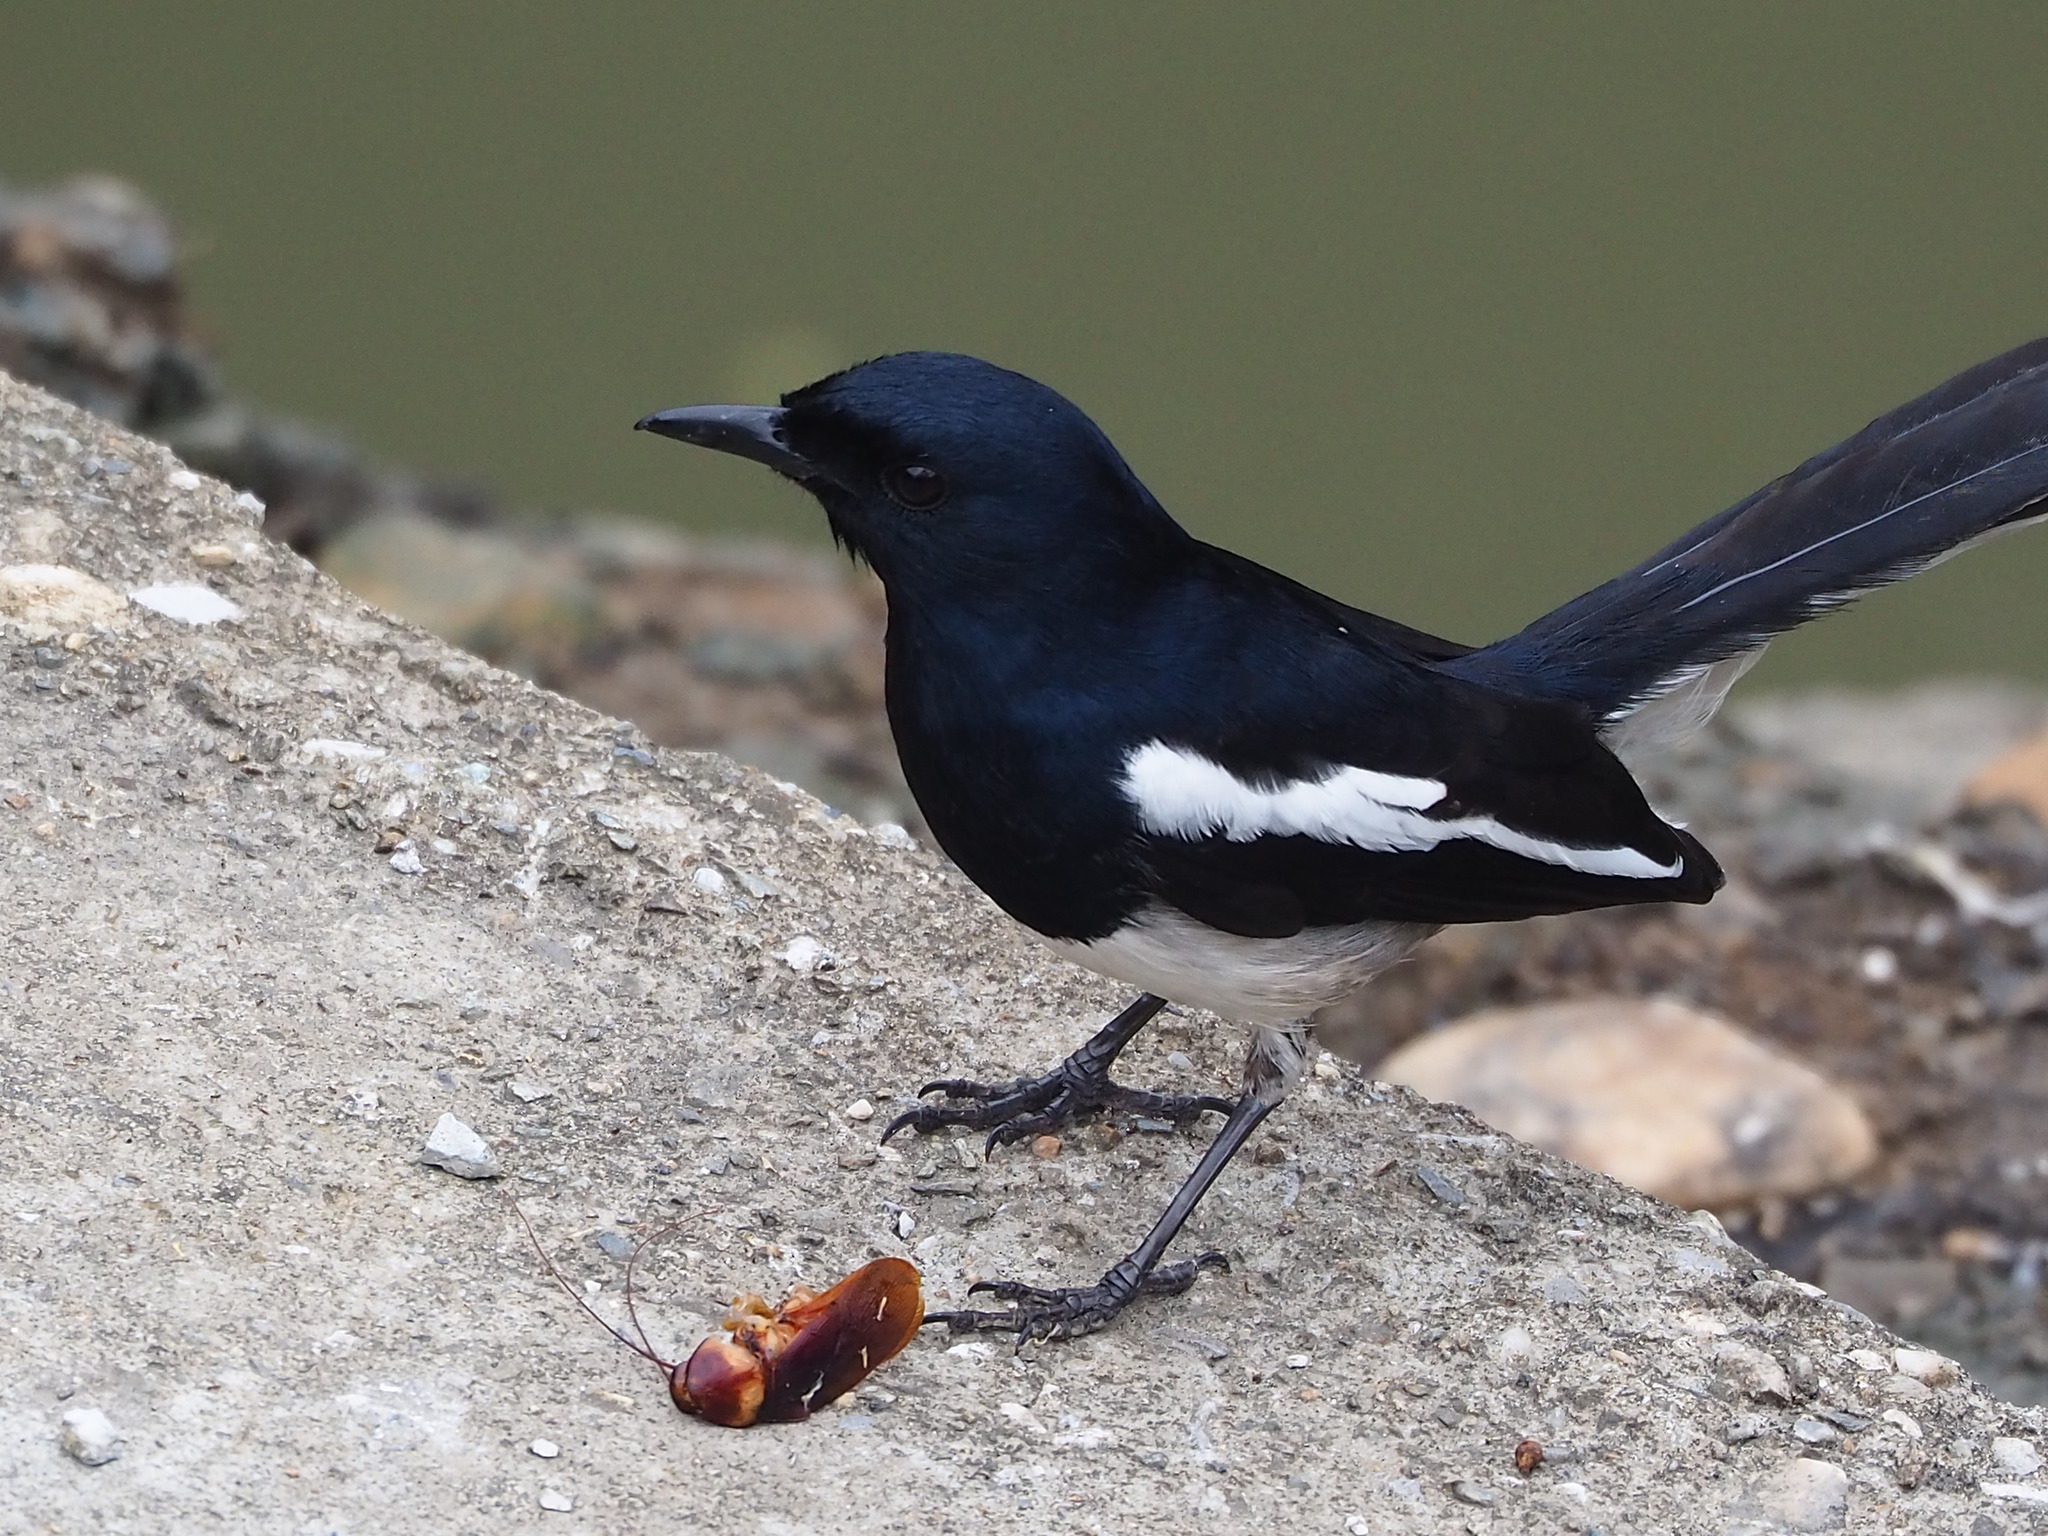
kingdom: Animalia
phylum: Chordata
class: Aves
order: Passeriformes
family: Muscicapidae
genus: Copsychus
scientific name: Copsychus saularis
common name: Oriental magpie-robin
